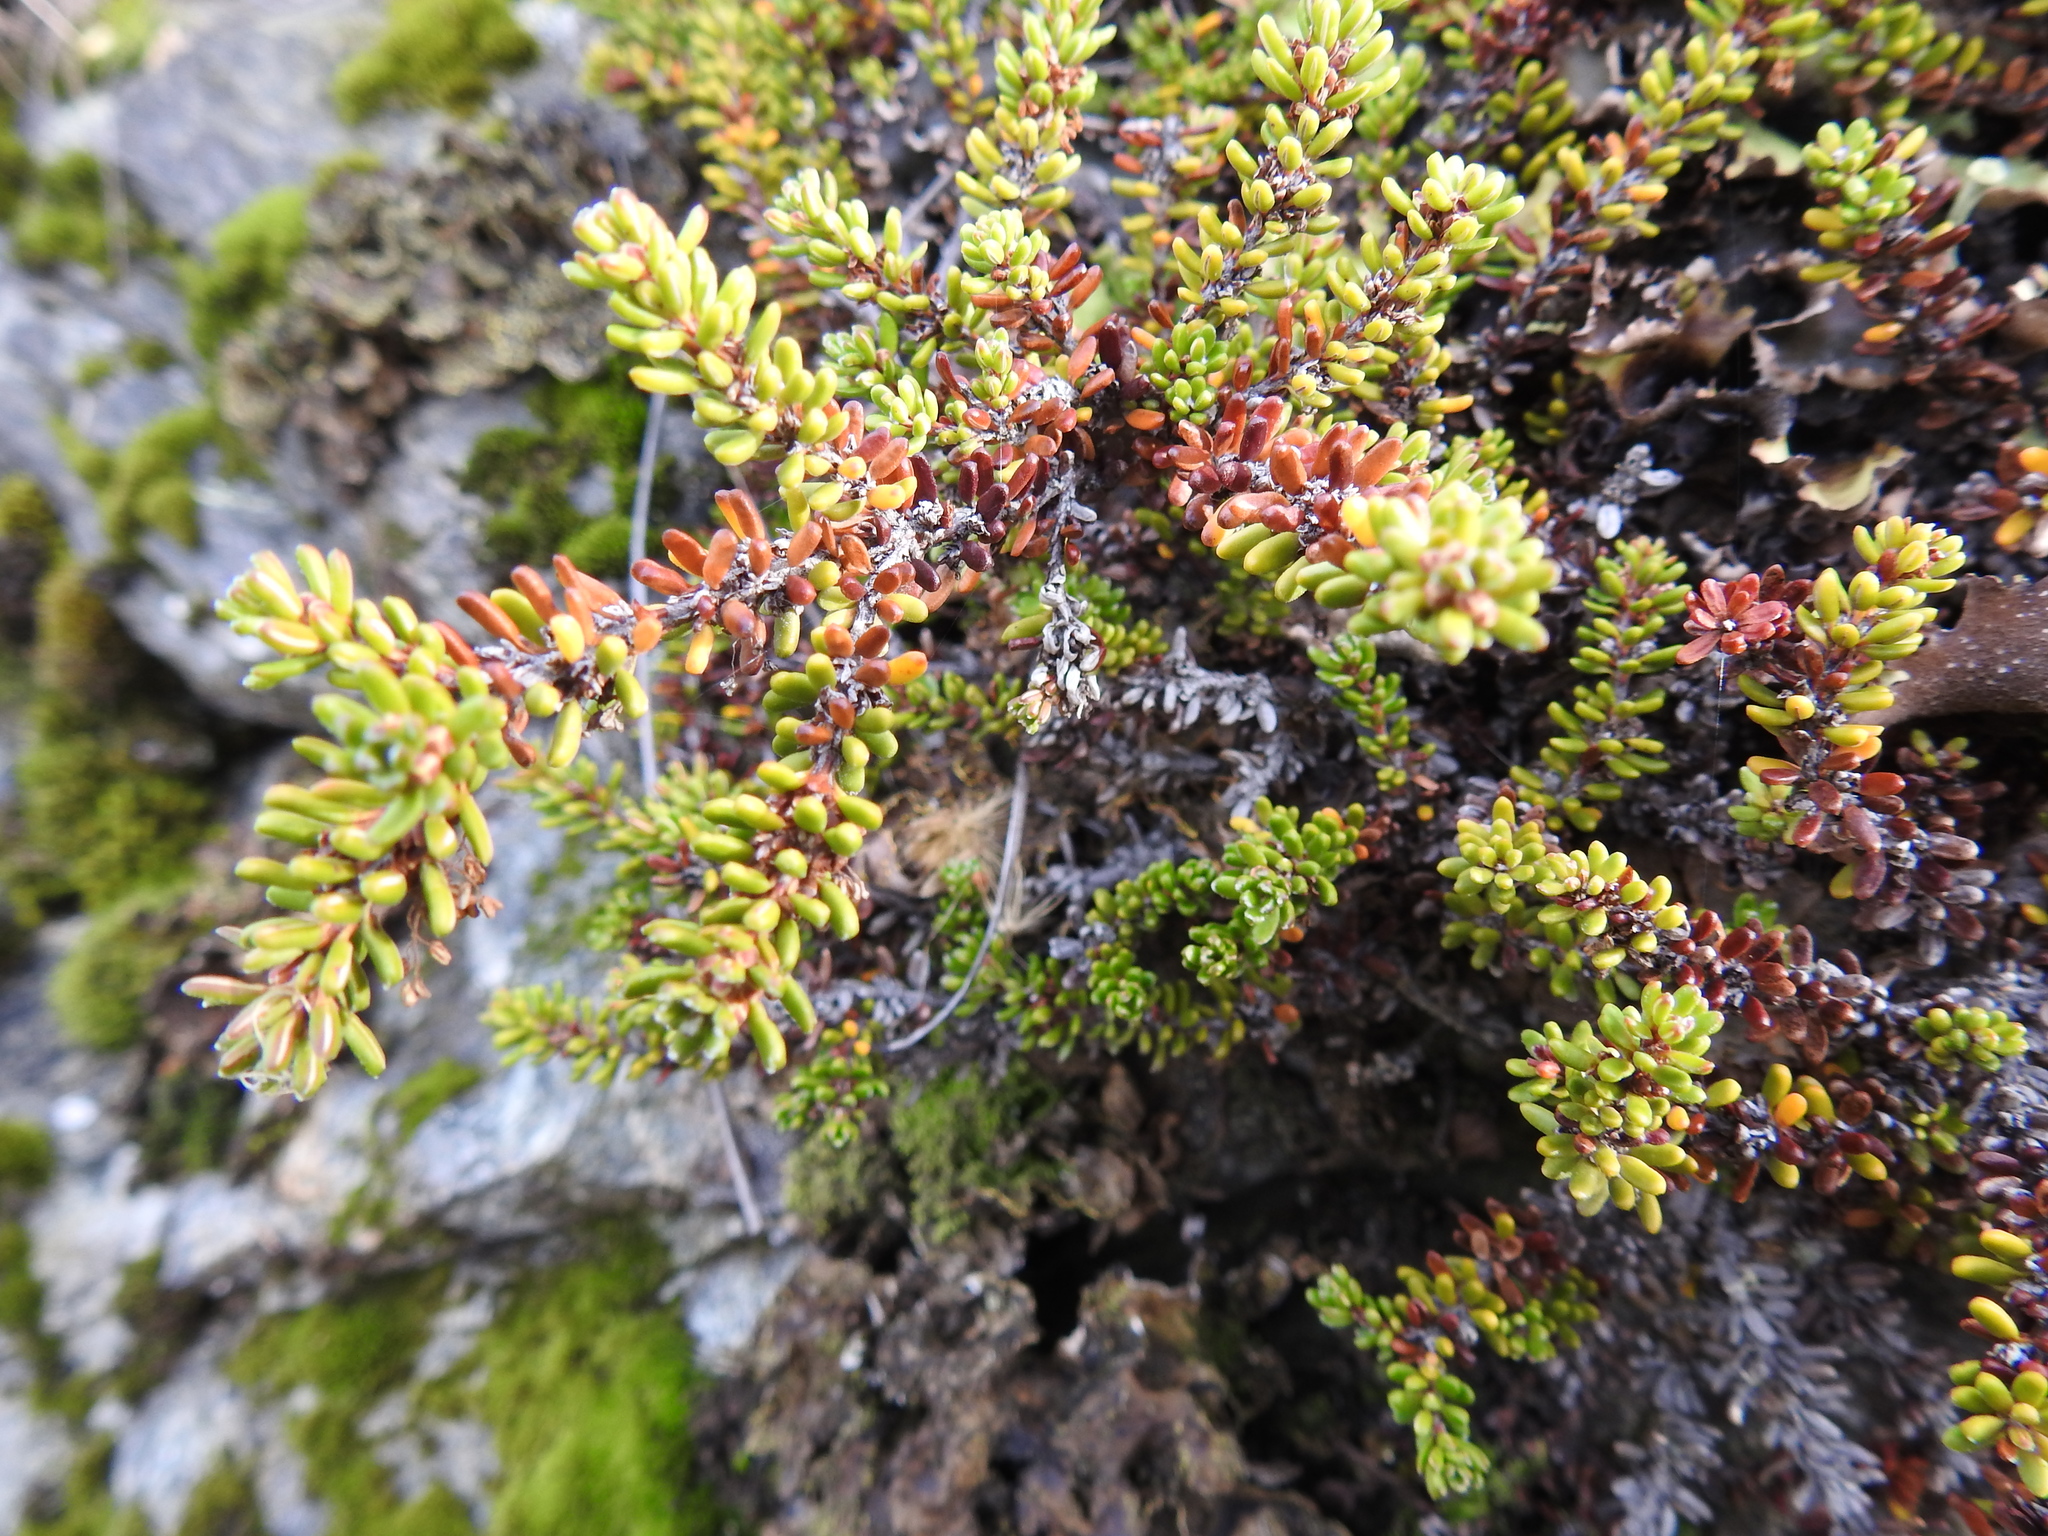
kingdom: Plantae
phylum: Tracheophyta
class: Magnoliopsida
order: Ericales
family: Ericaceae
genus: Empetrum
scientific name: Empetrum rubrum
